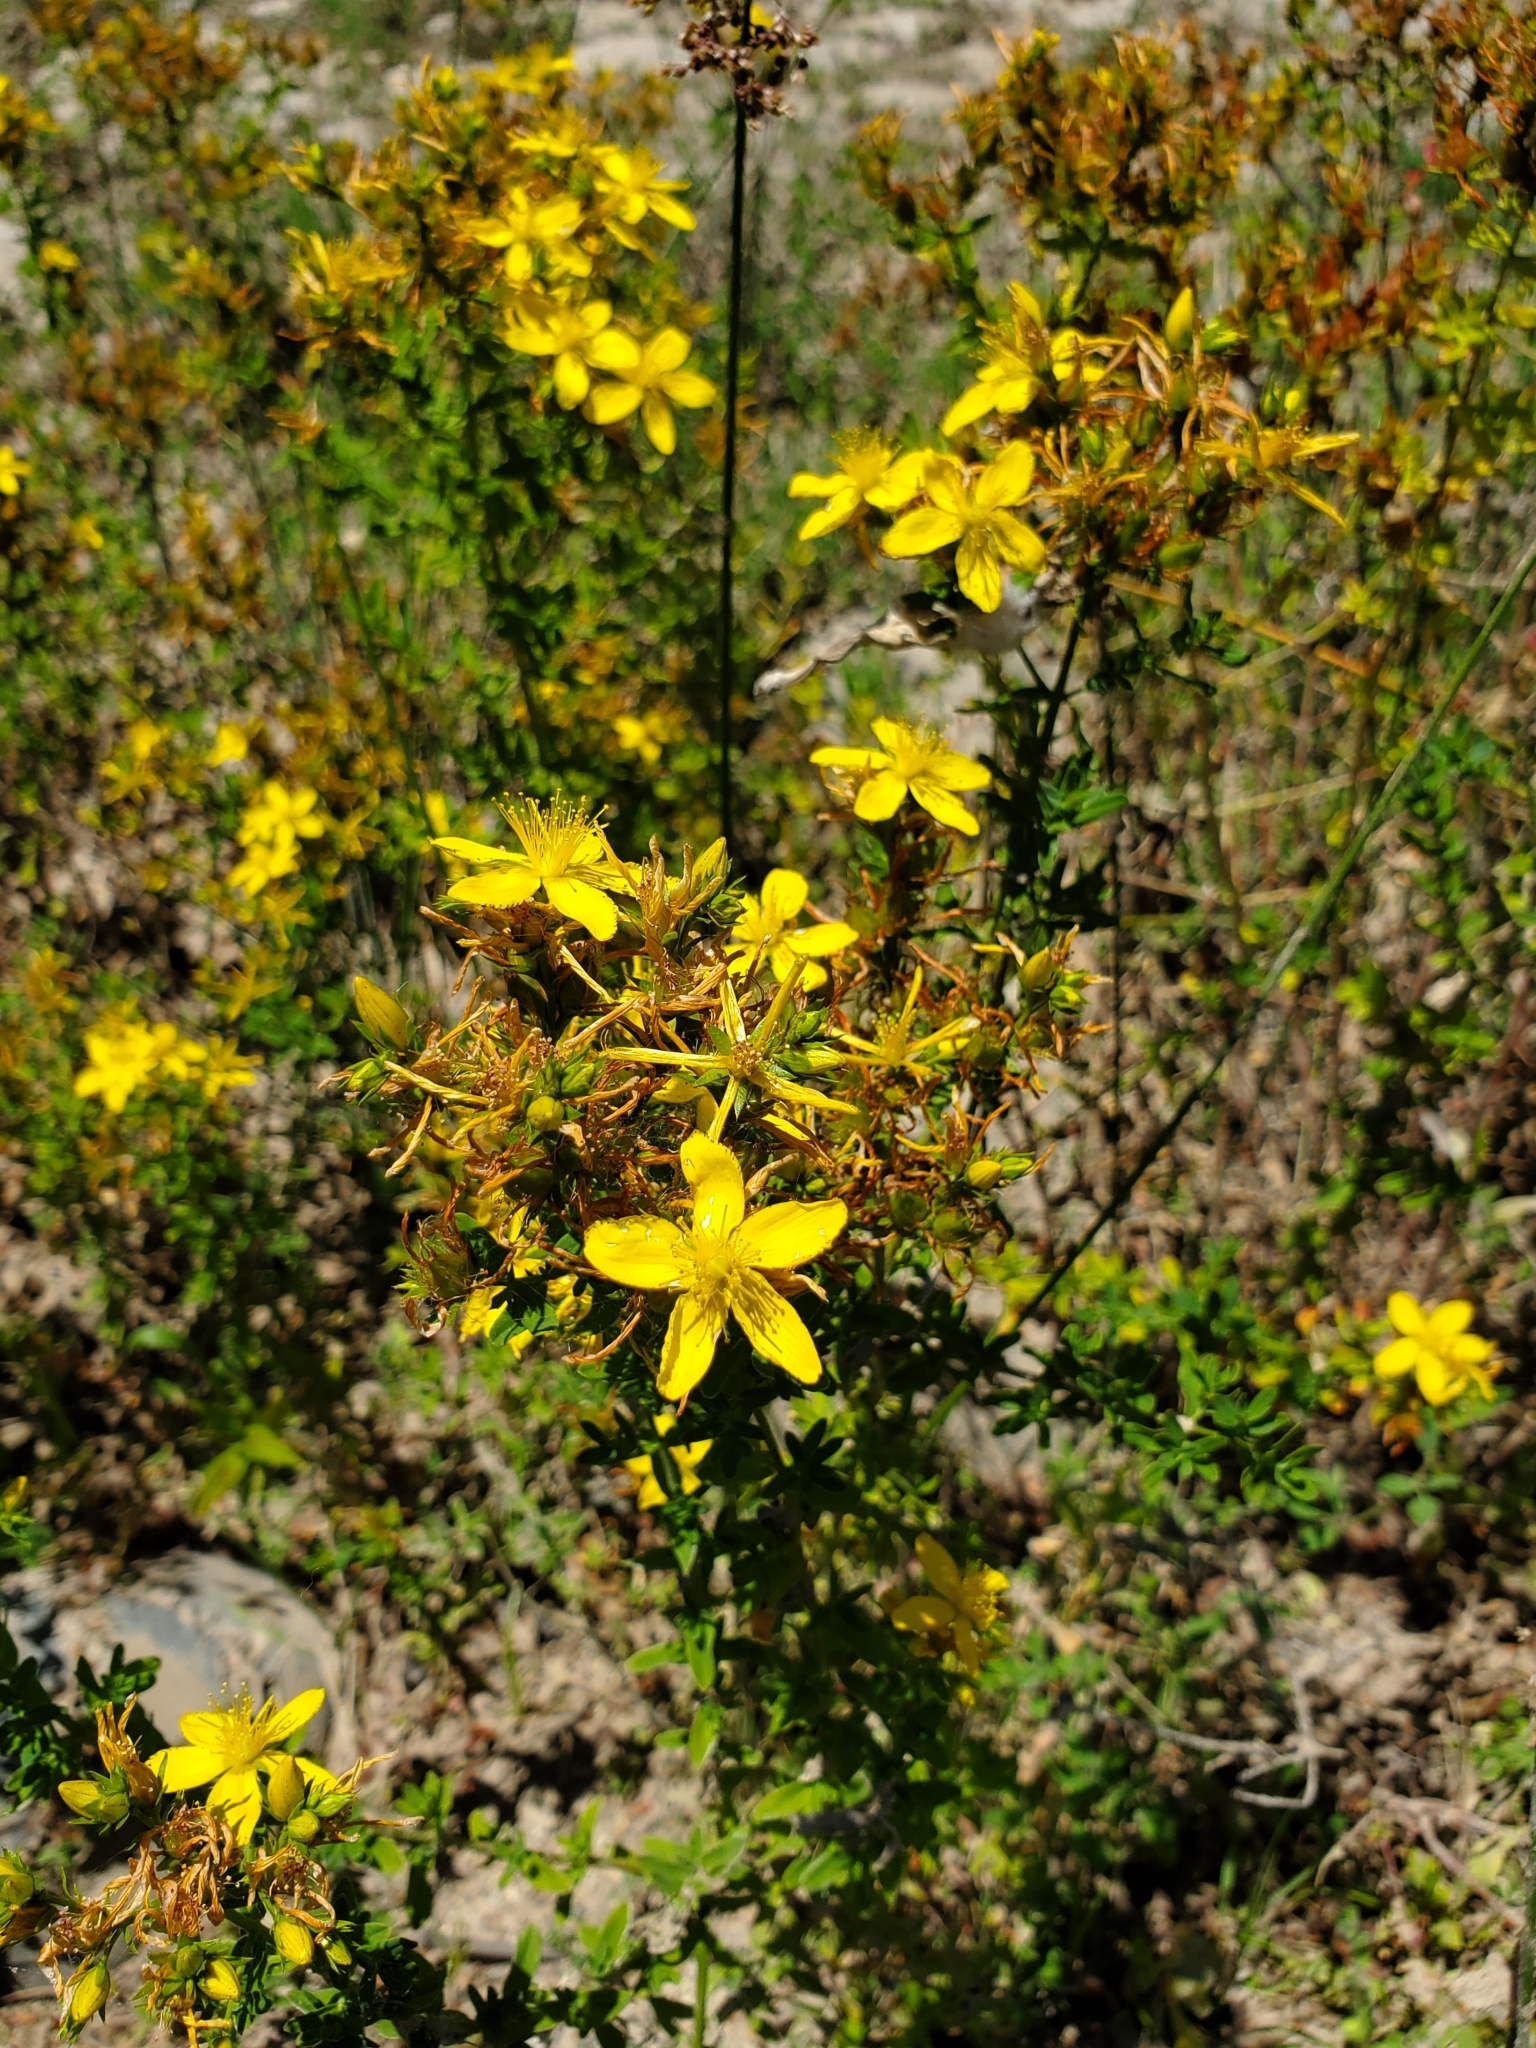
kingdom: Plantae
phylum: Tracheophyta
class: Magnoliopsida
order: Malpighiales
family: Hypericaceae
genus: Hypericum
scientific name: Hypericum perforatum
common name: Common st. johnswort
